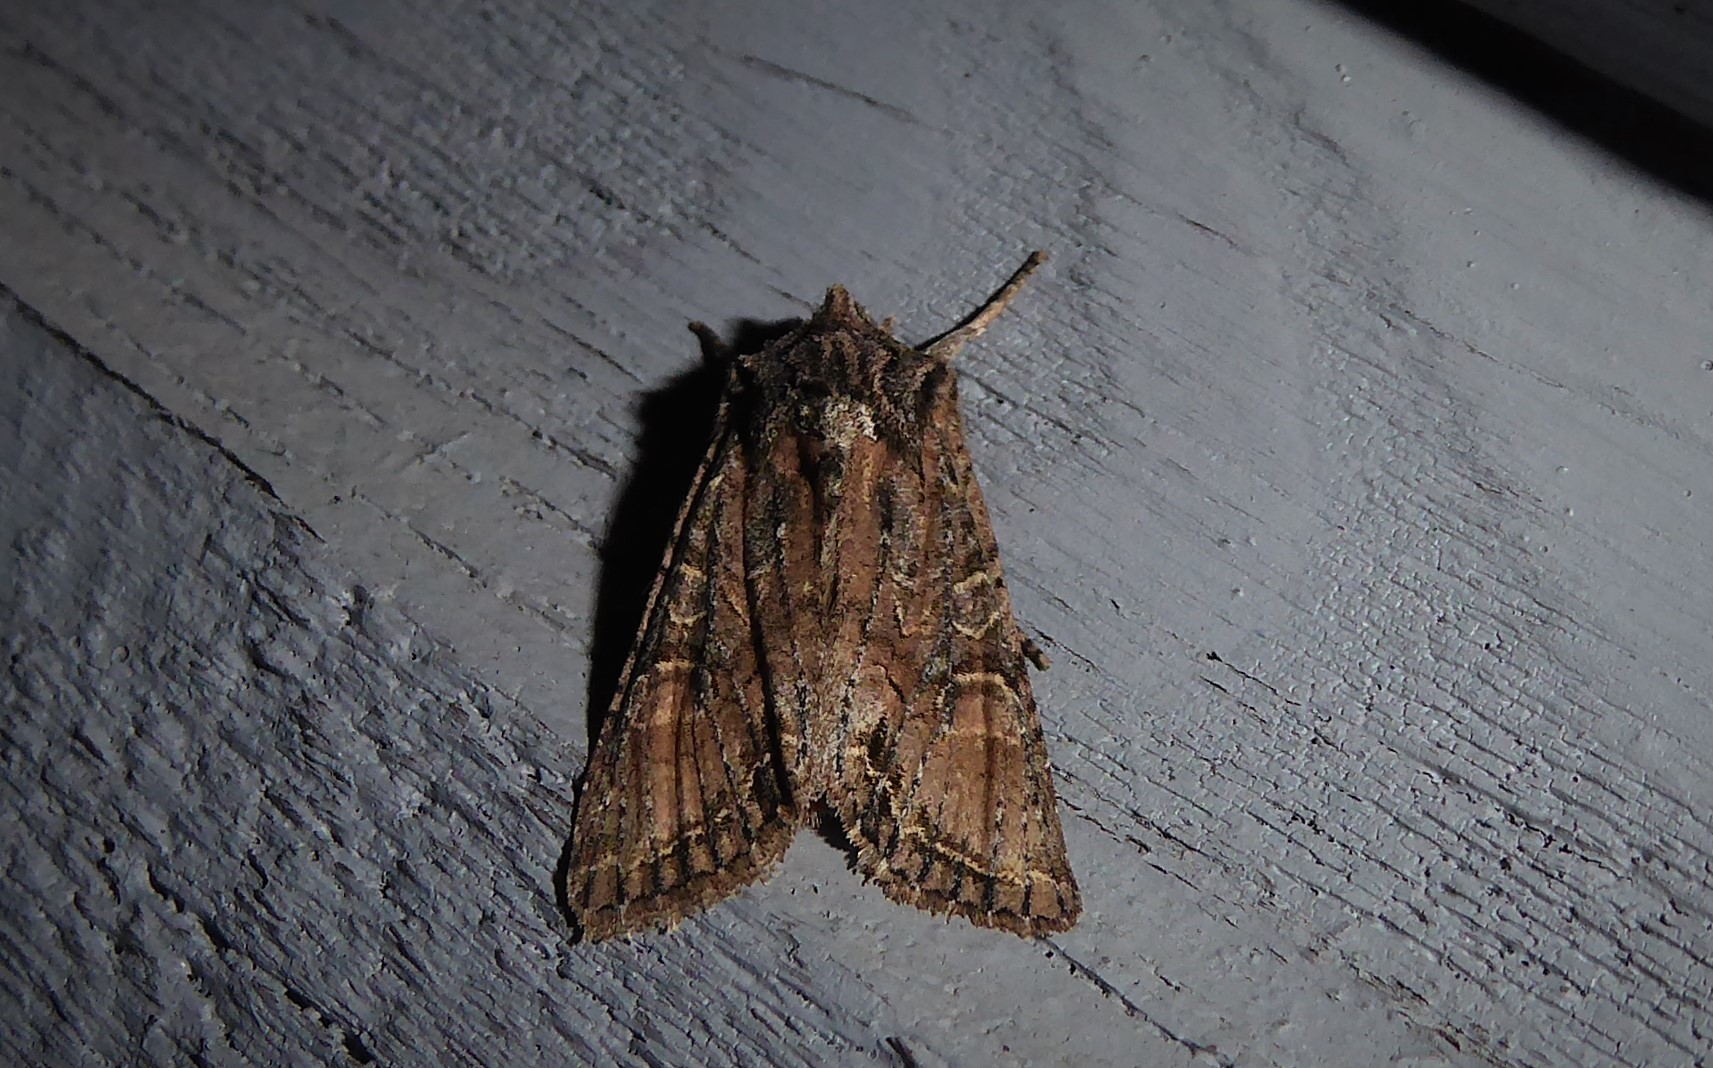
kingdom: Animalia
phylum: Arthropoda
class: Insecta
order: Lepidoptera
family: Noctuidae
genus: Ichneutica
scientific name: Ichneutica mutans
